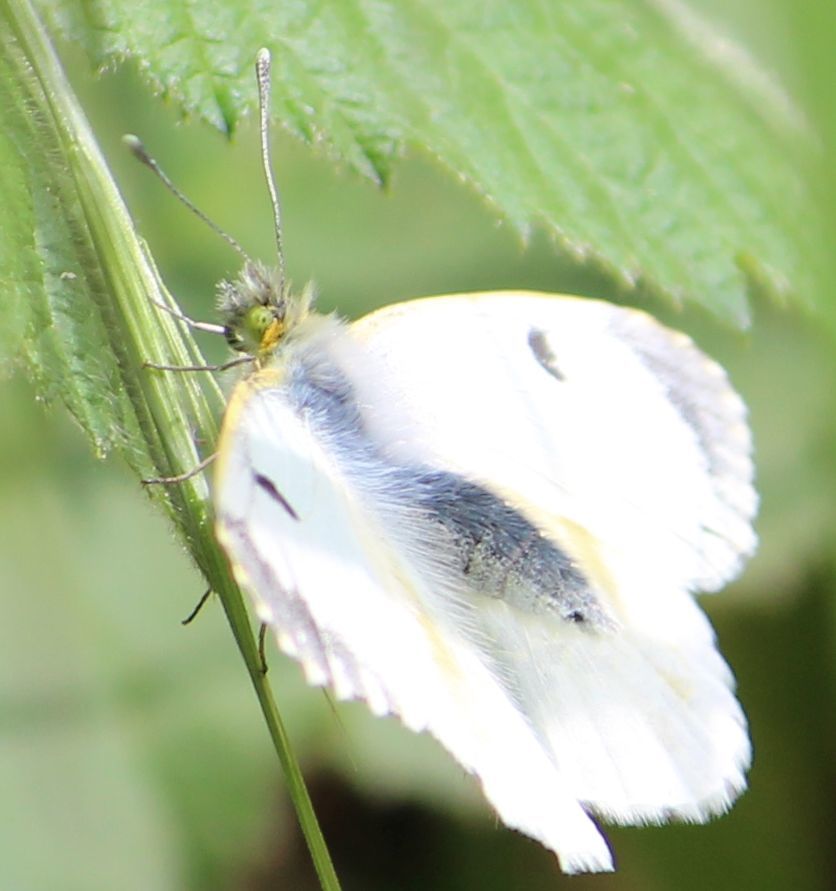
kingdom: Animalia
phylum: Arthropoda
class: Insecta
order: Lepidoptera
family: Pieridae
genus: Anthocharis
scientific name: Anthocharis cardamines
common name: Orange-tip
